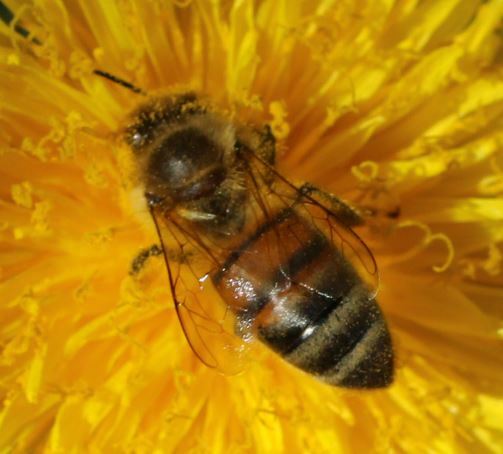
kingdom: Animalia
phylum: Arthropoda
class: Insecta
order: Hymenoptera
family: Apidae
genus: Apis
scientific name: Apis mellifera
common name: Honey bee
